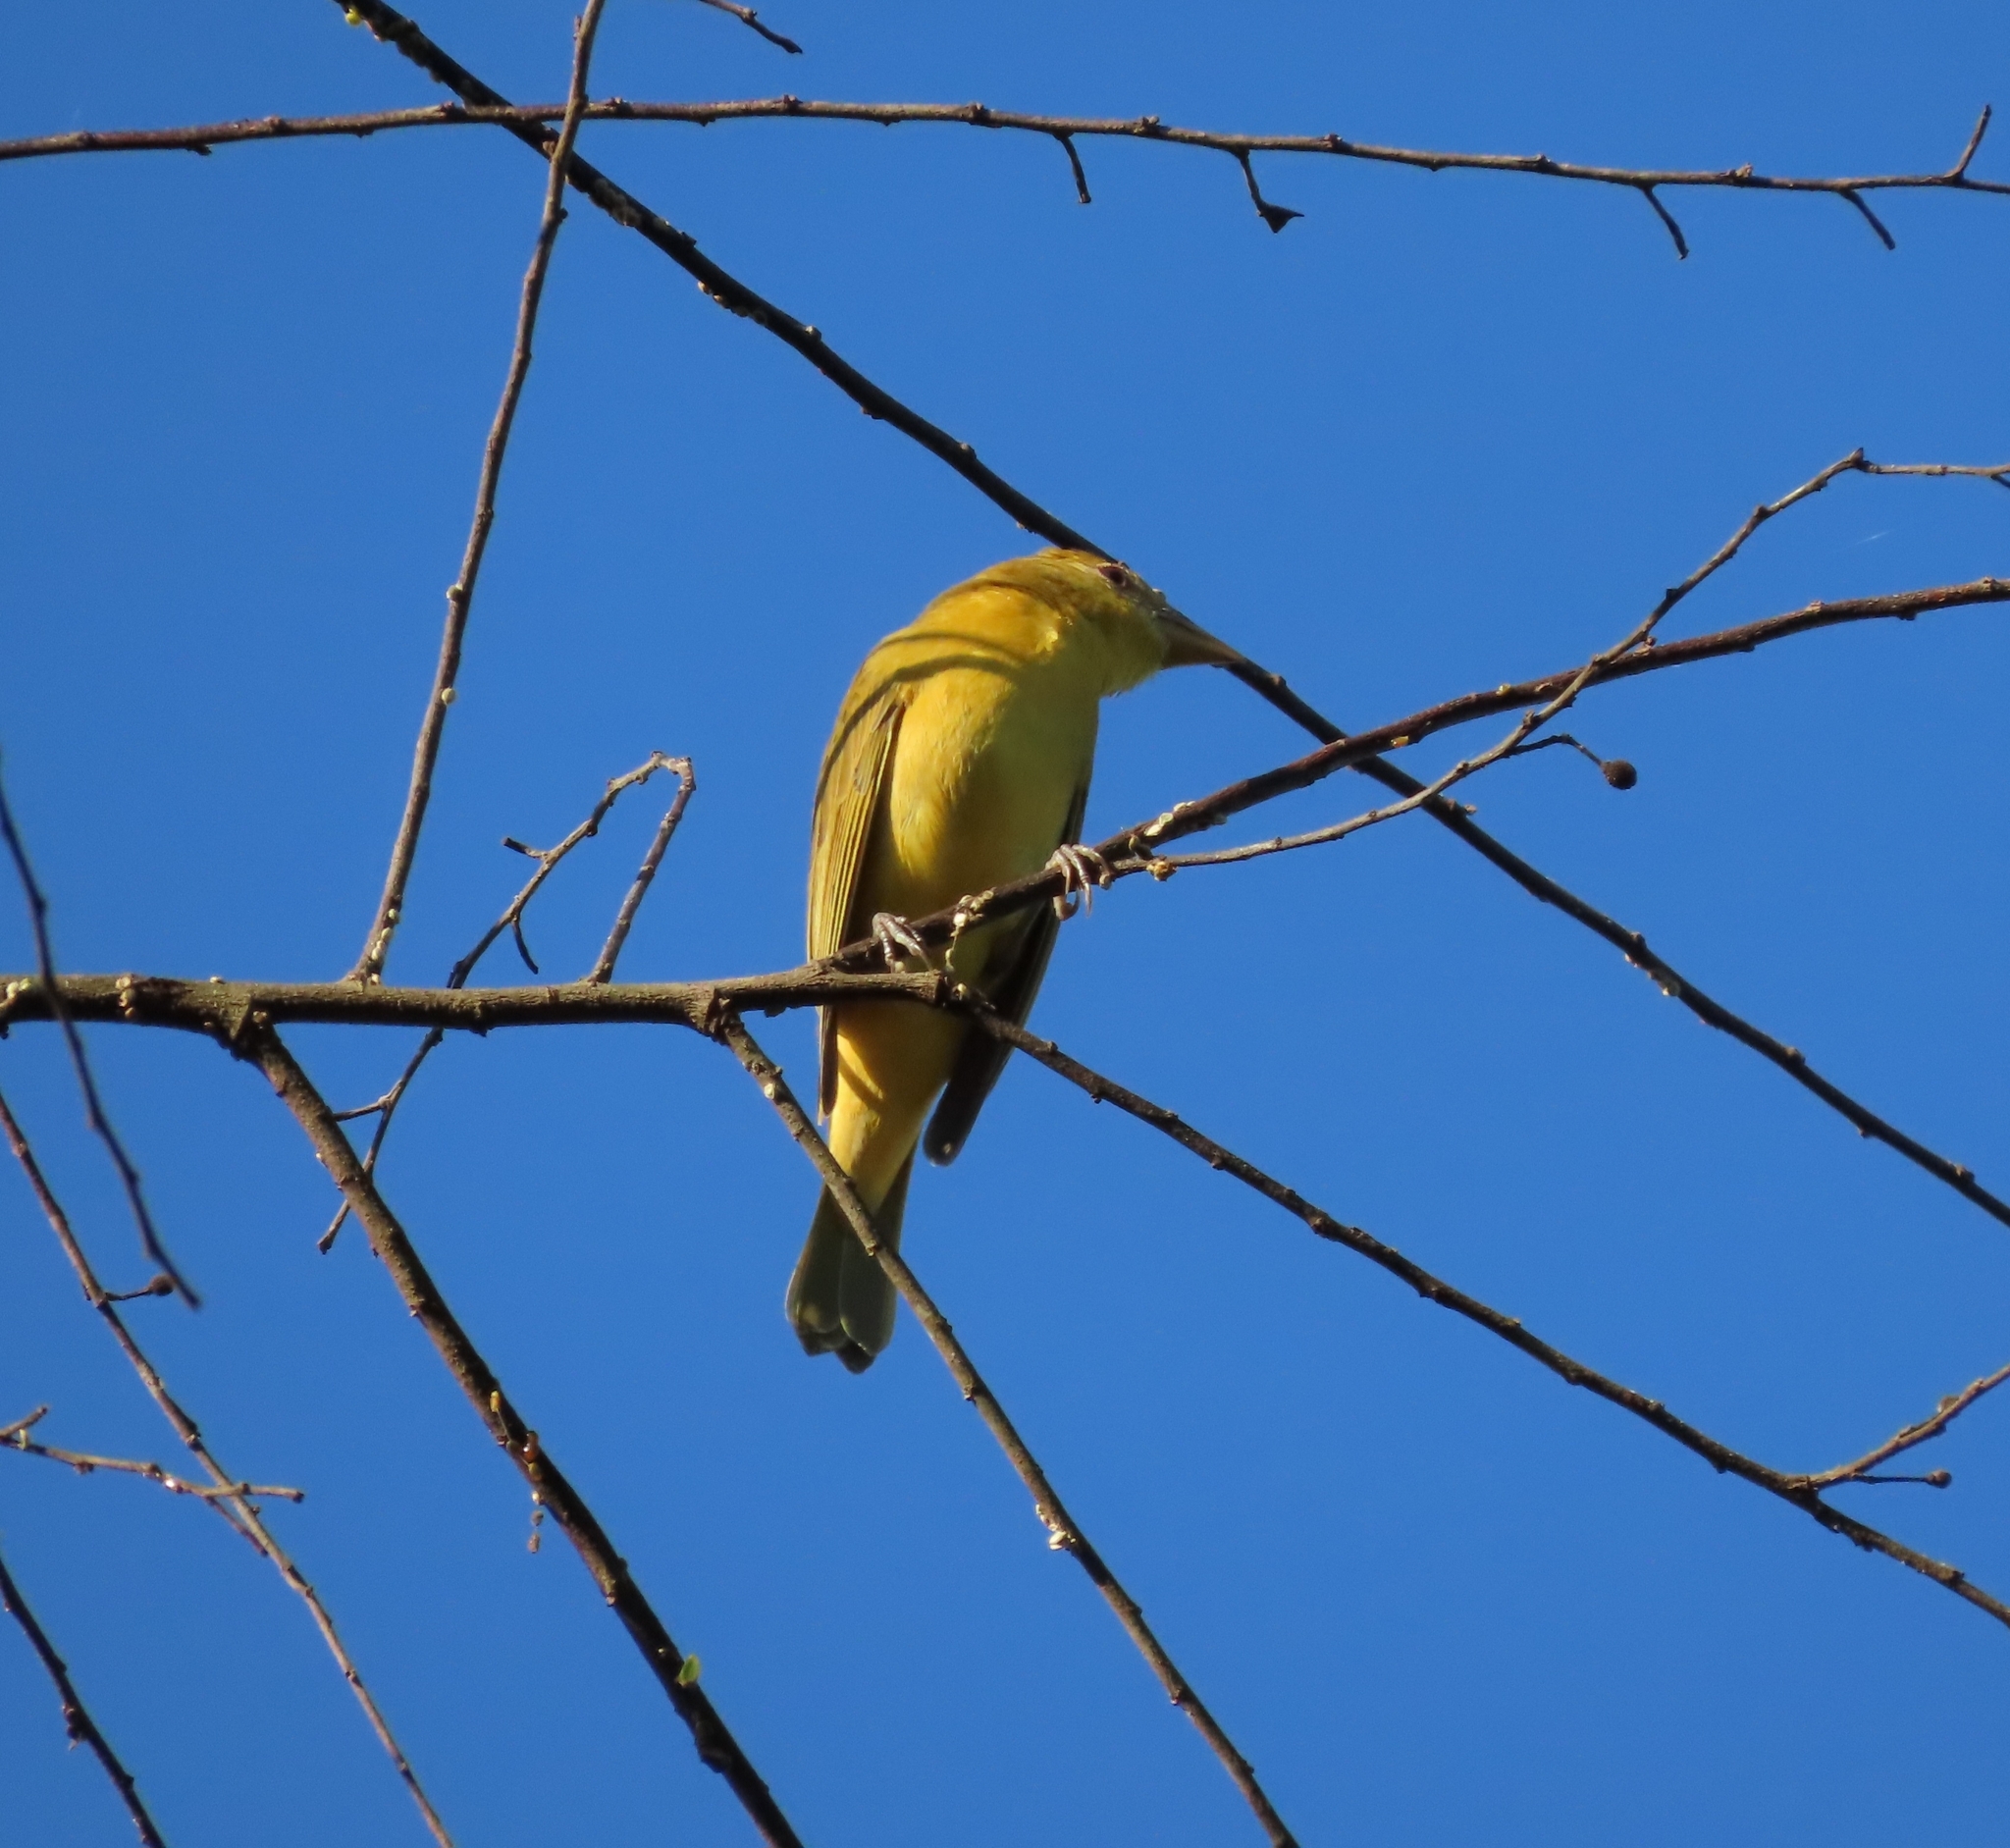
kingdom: Animalia
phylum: Chordata
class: Aves
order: Passeriformes
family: Cardinalidae
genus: Piranga
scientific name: Piranga rubra
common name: Summer tanager
